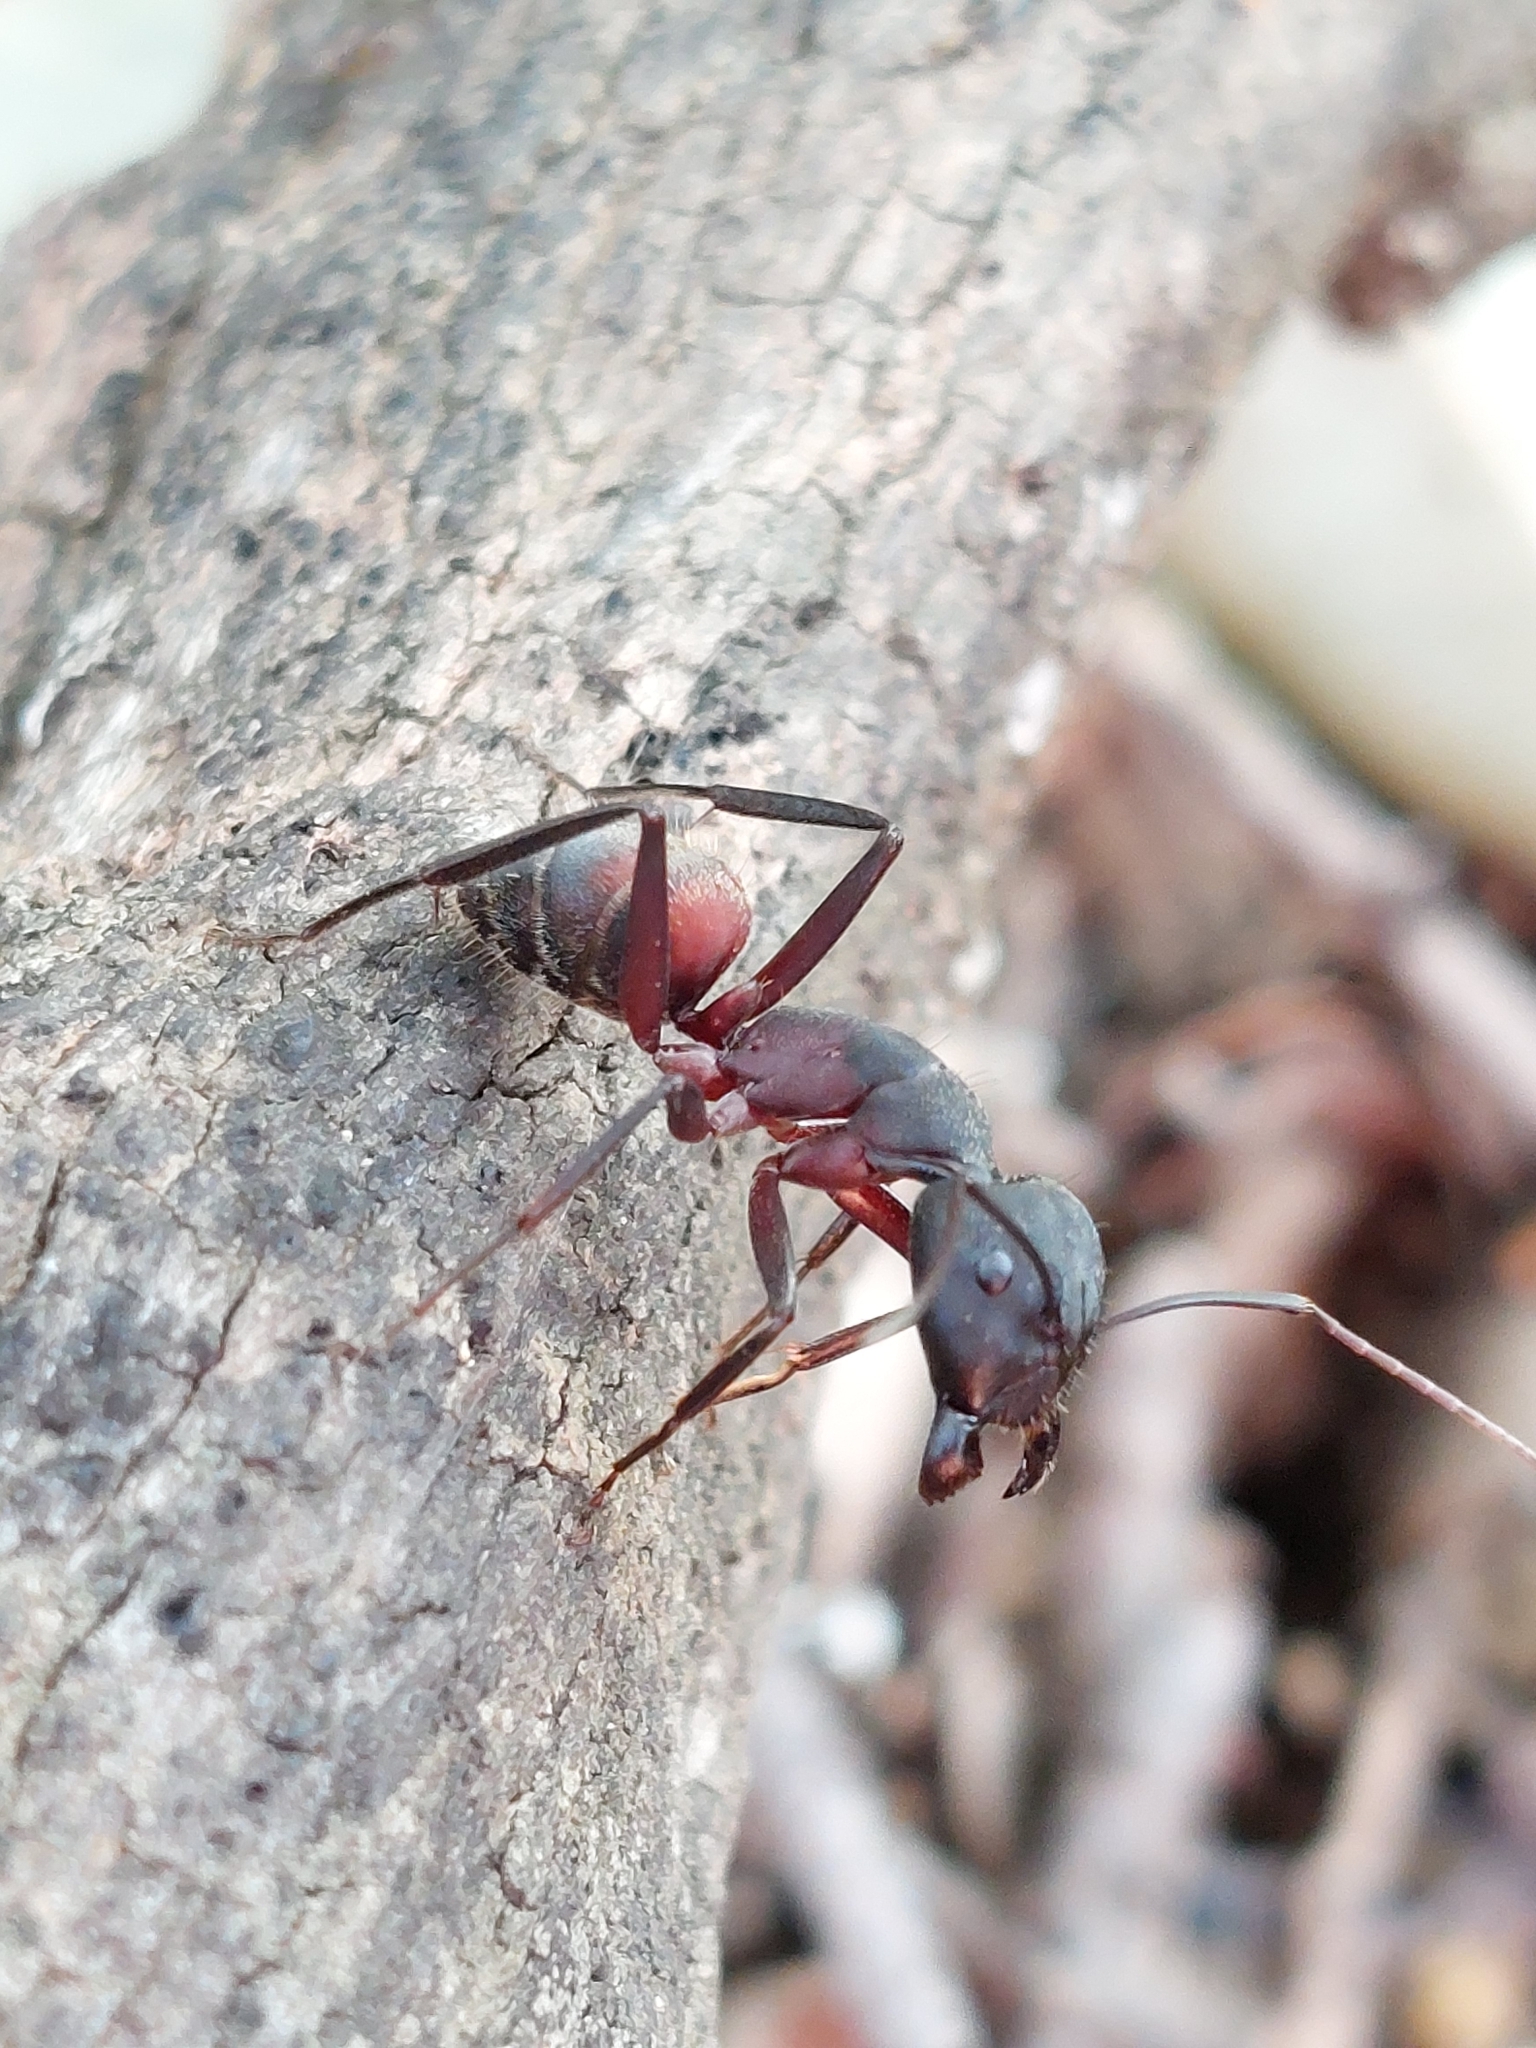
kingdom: Animalia
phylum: Arthropoda
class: Insecta
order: Hymenoptera
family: Formicidae
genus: Camponotus
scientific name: Camponotus cruentatus
